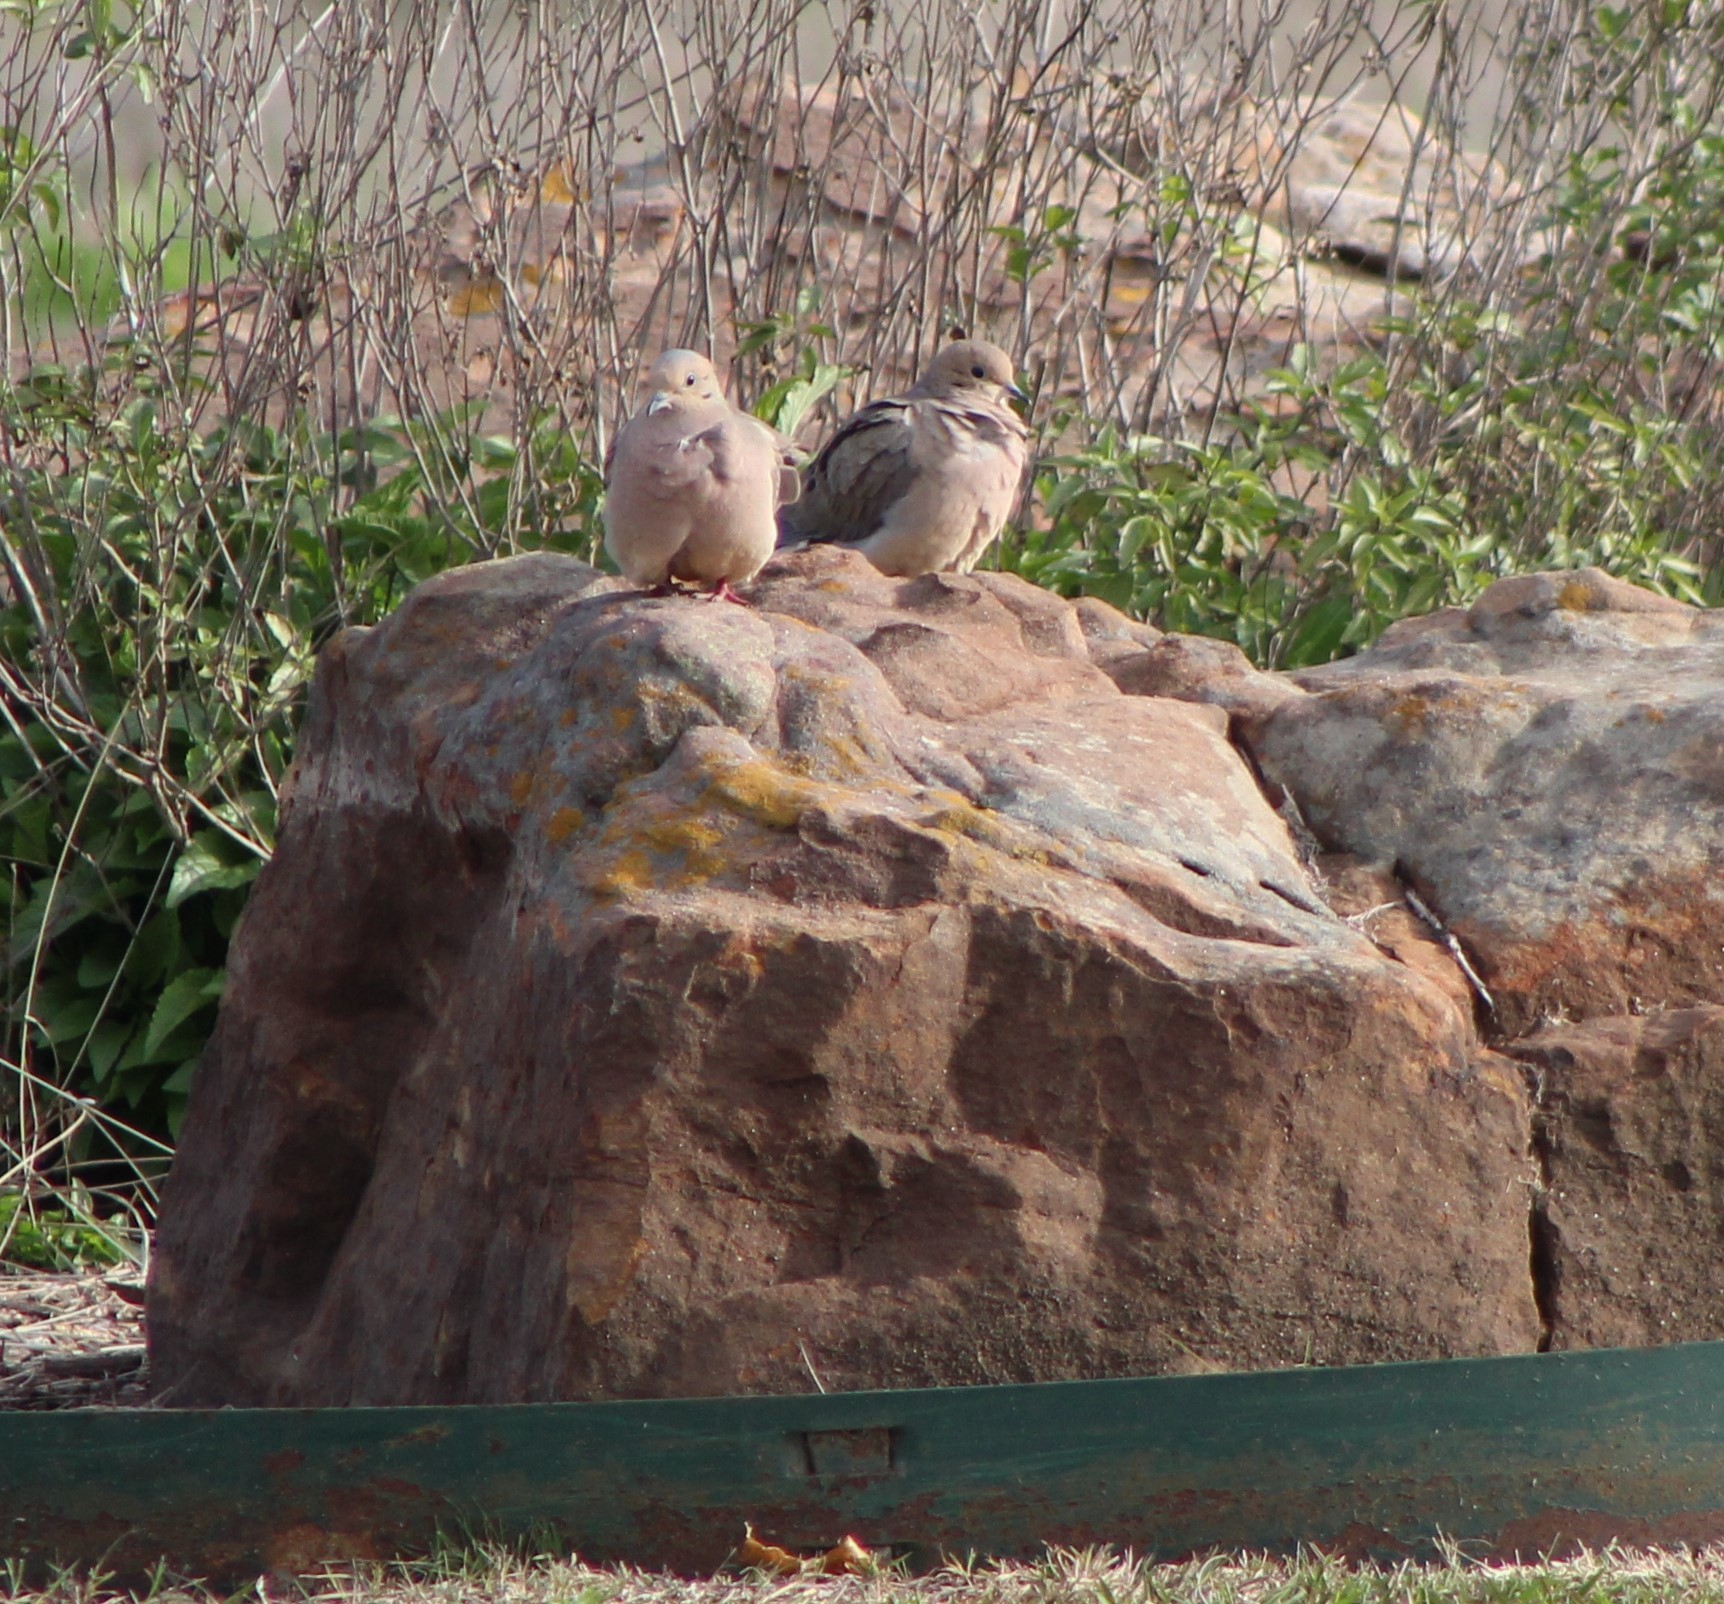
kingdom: Animalia
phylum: Chordata
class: Aves
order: Columbiformes
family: Columbidae
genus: Zenaida
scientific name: Zenaida macroura
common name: Mourning dove
